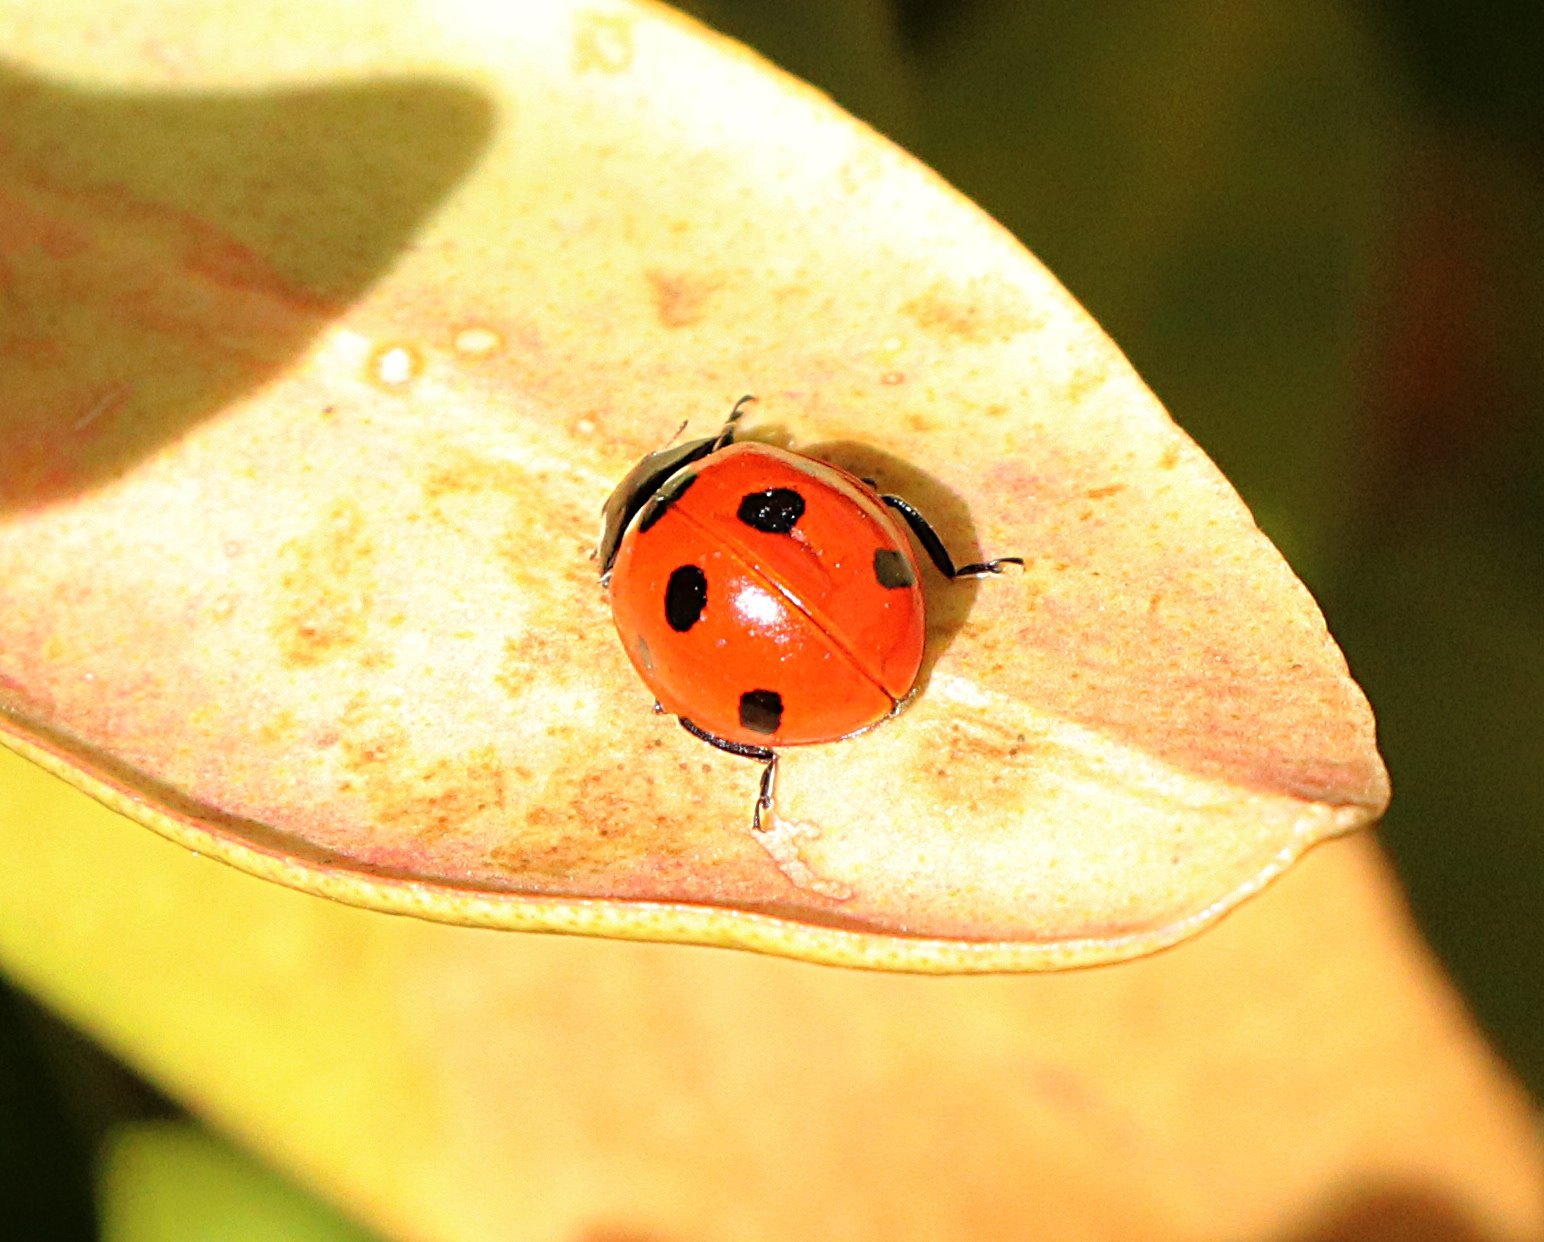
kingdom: Animalia
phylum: Arthropoda
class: Insecta
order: Coleoptera
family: Coccinellidae
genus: Coccinella
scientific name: Coccinella septempunctata
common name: Sevenspotted lady beetle
